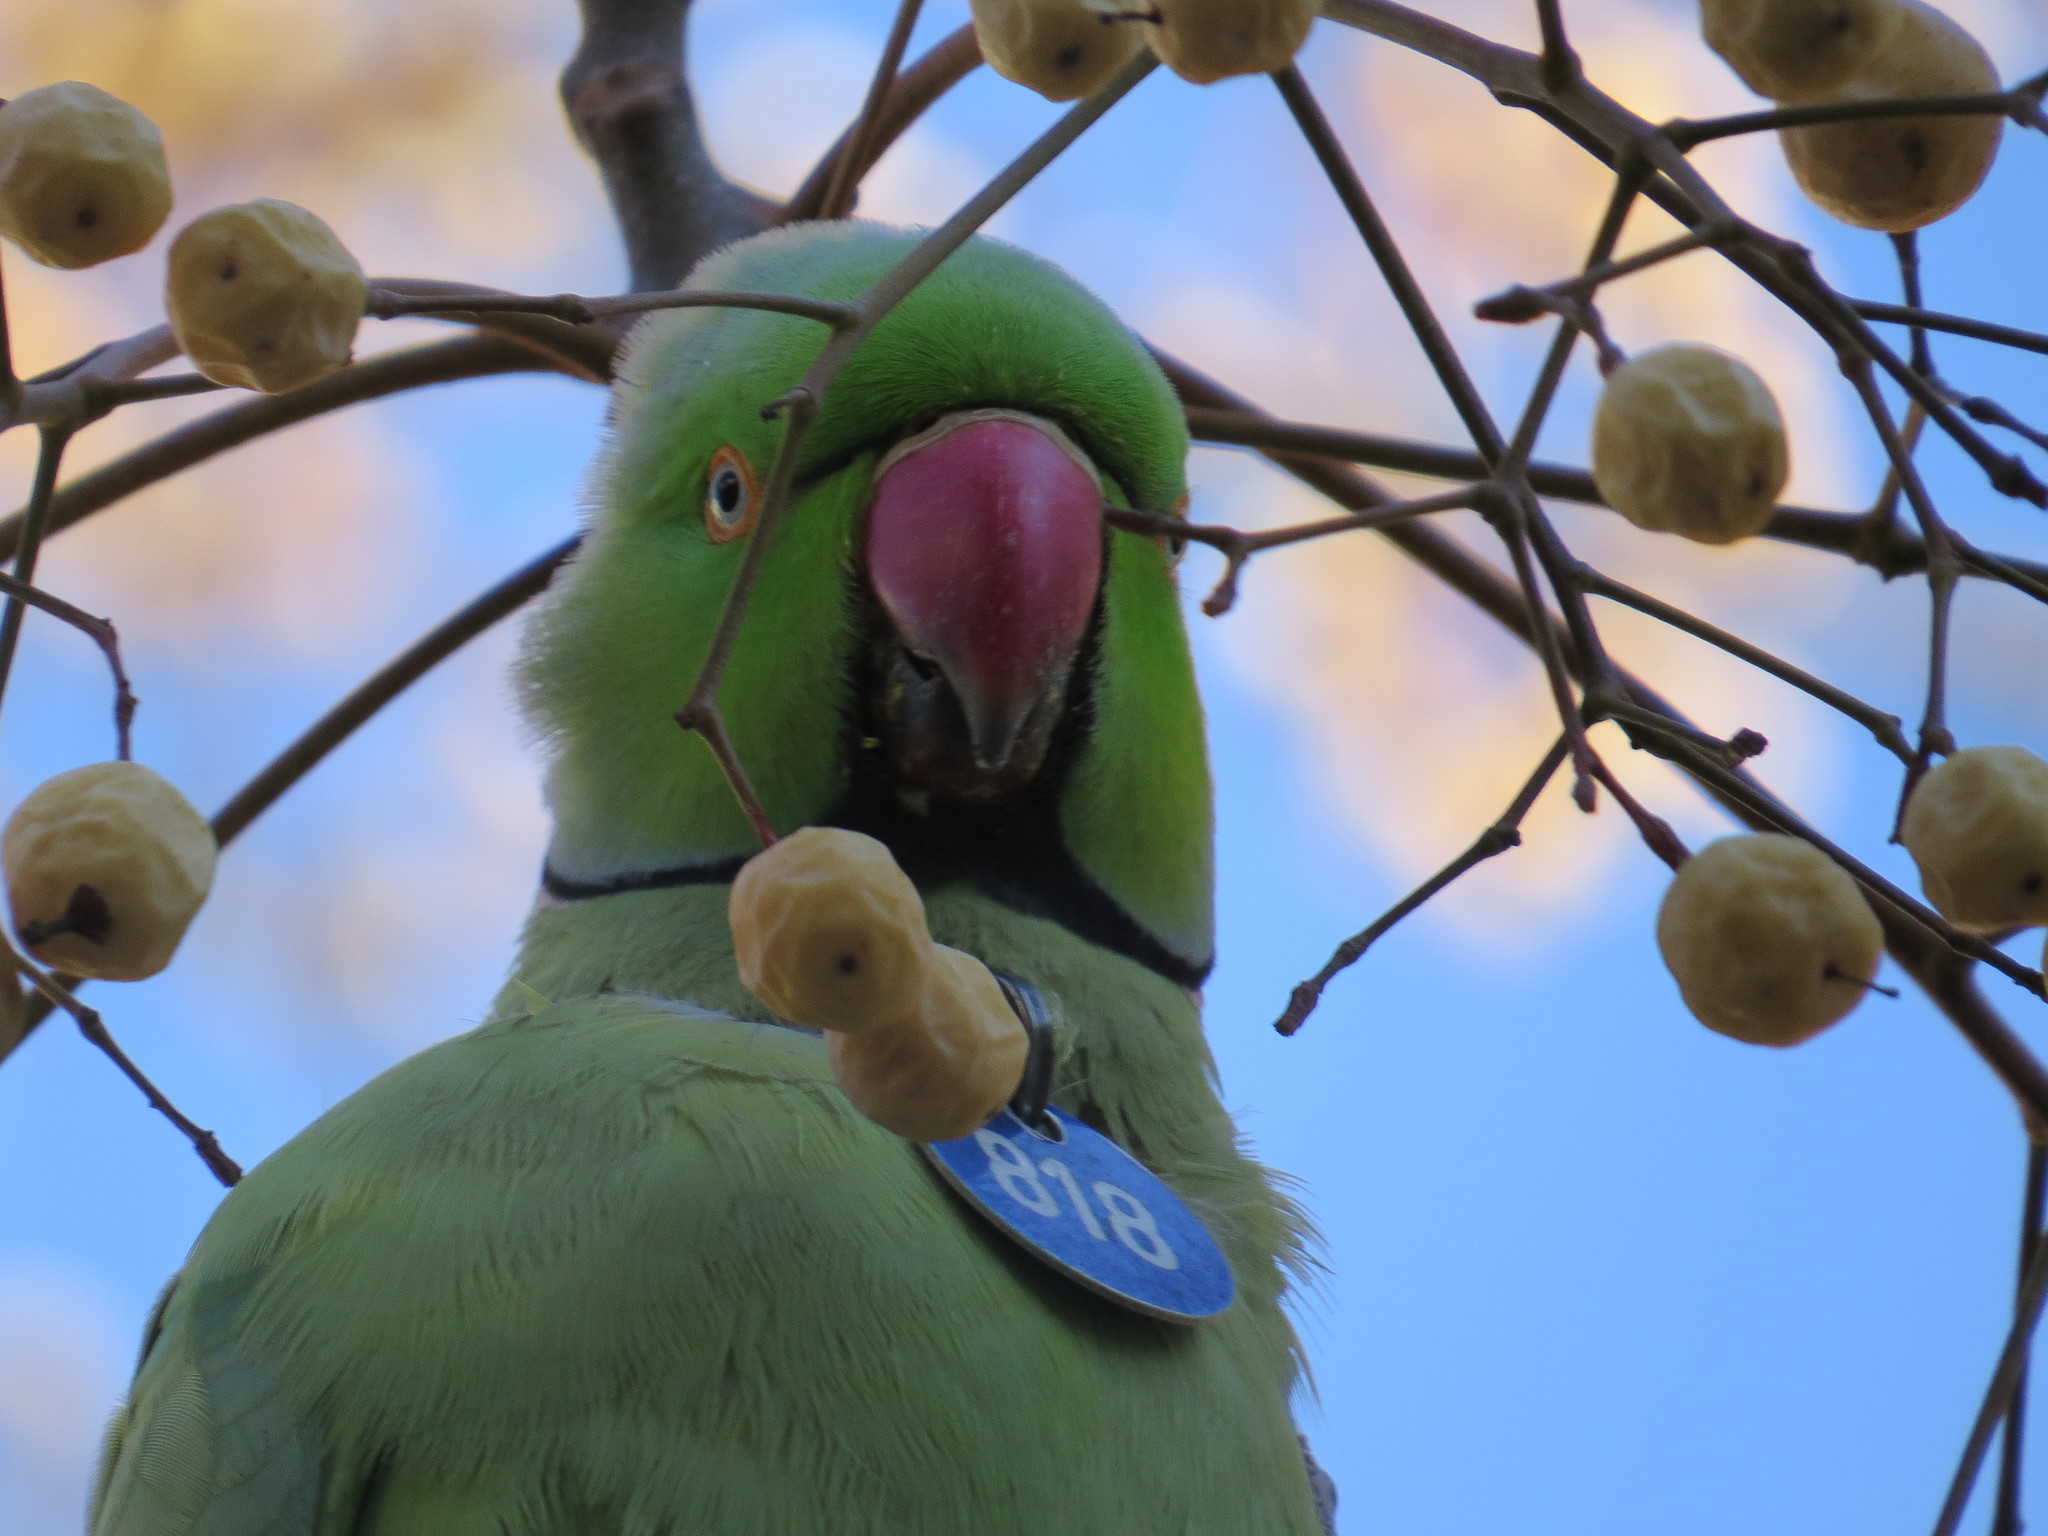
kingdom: Animalia
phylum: Chordata
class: Aves
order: Psittaciformes
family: Psittacidae
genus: Psittacula
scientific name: Psittacula krameri
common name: Rose-ringed parakeet
